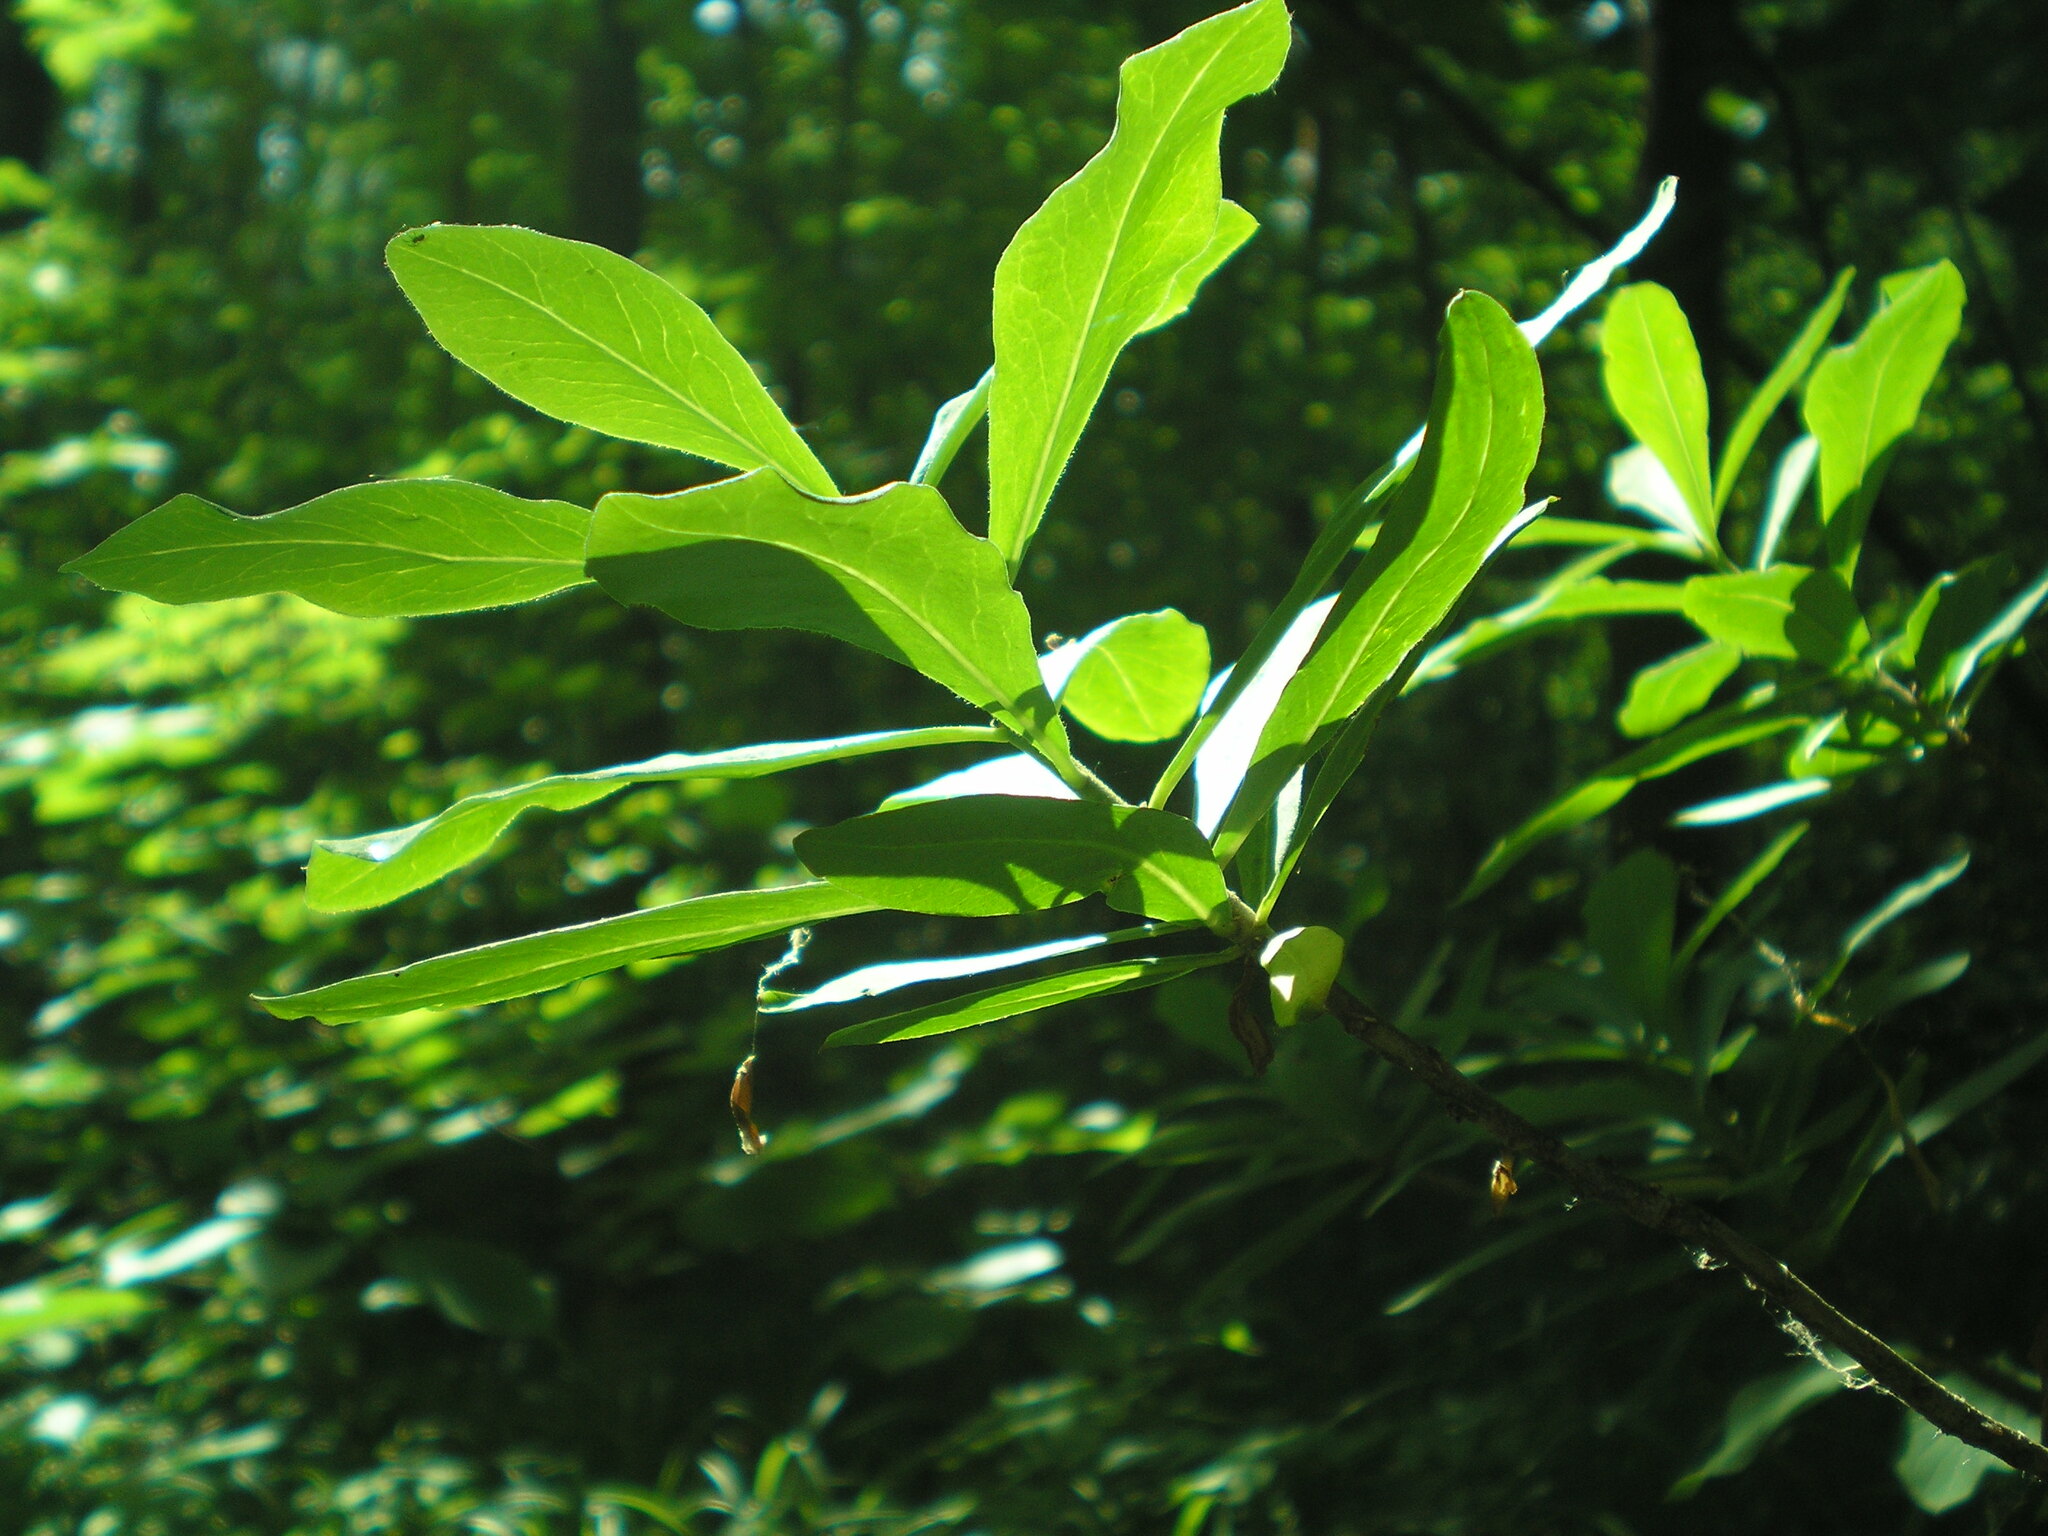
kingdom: Plantae
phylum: Tracheophyta
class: Magnoliopsida
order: Malvales
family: Thymelaeaceae
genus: Daphne
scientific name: Daphne mezereum
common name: Mezereon
